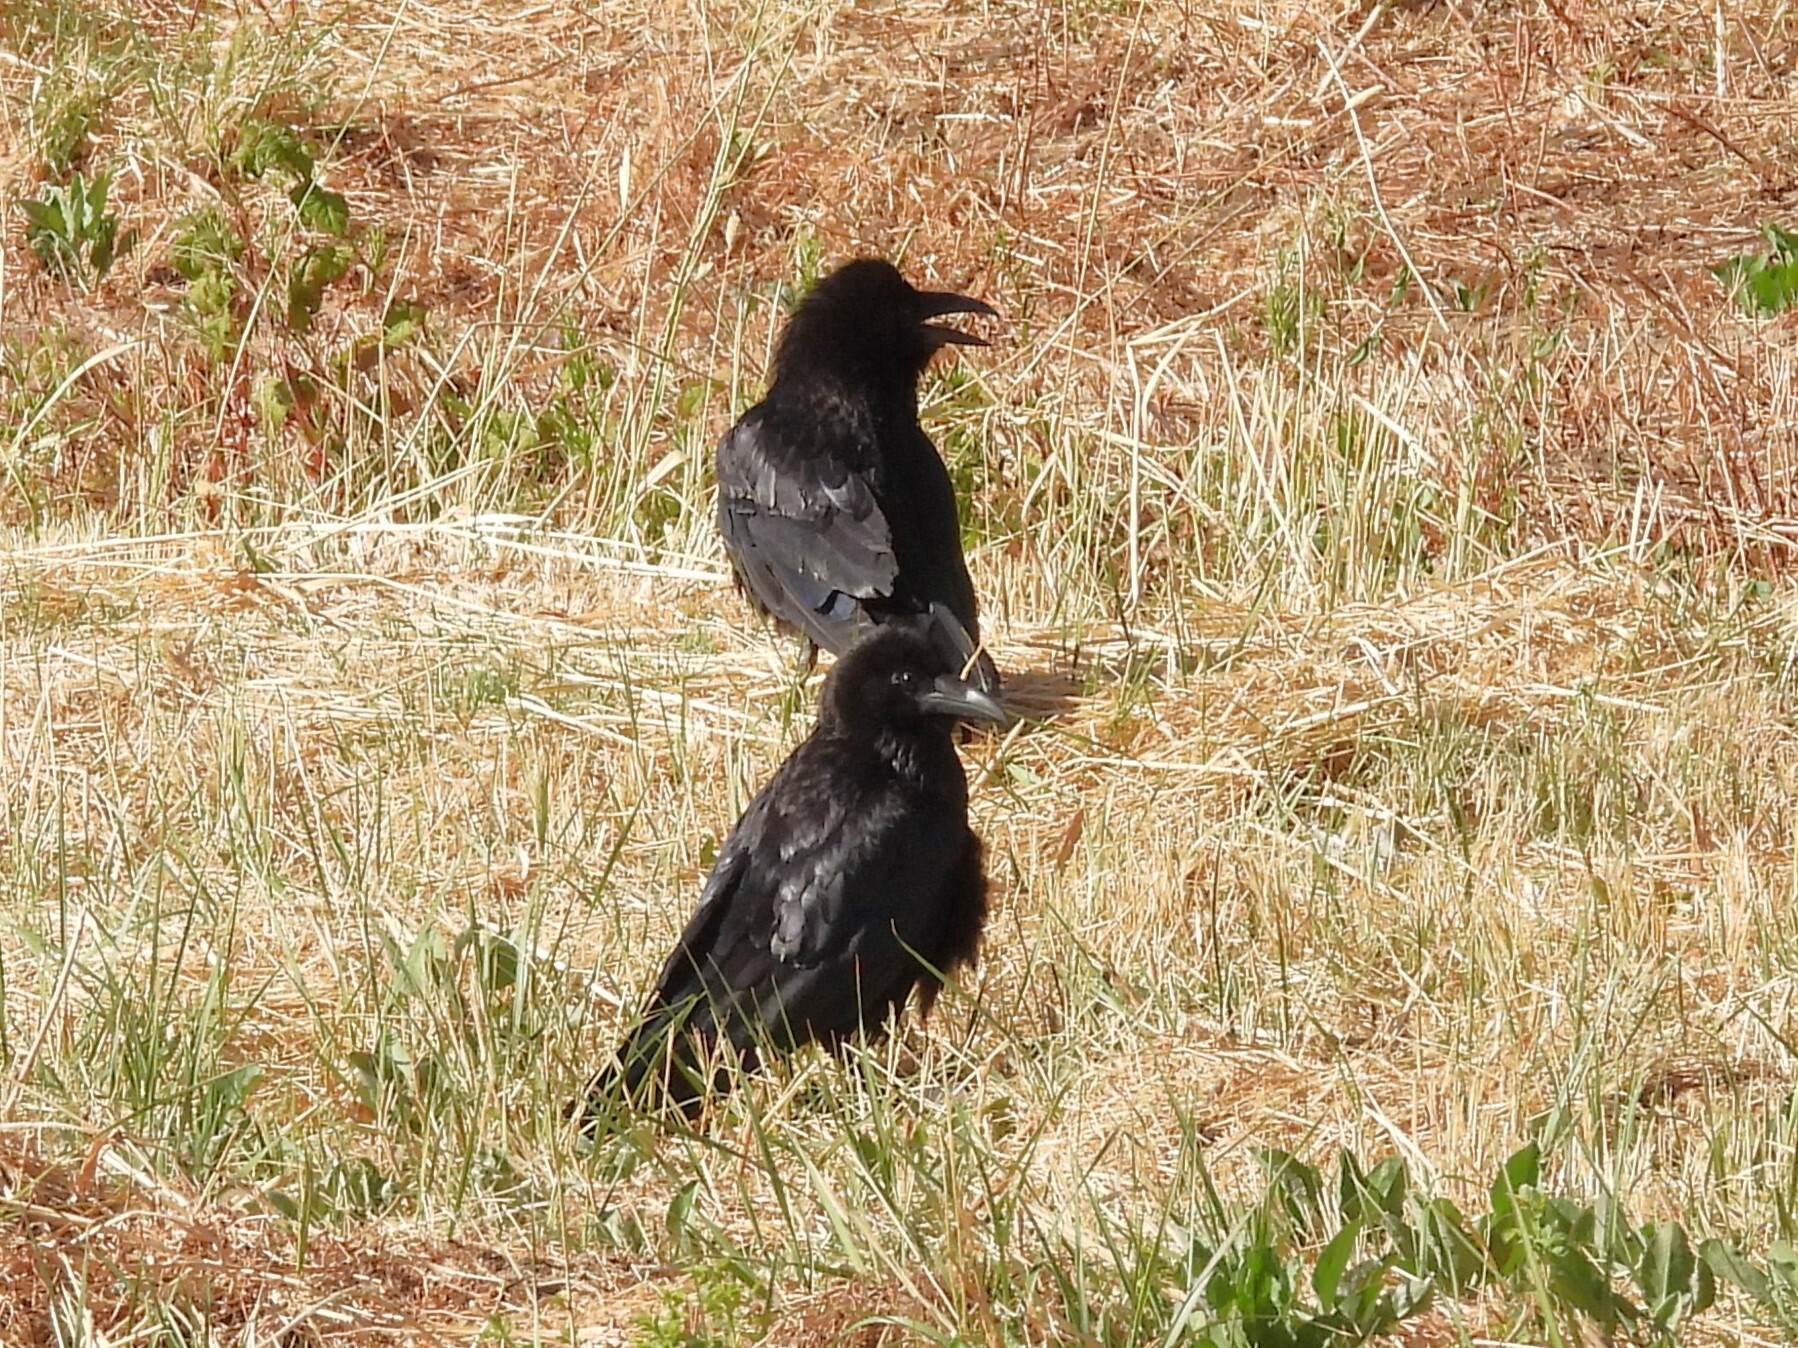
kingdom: Animalia
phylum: Chordata
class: Aves
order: Passeriformes
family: Corvidae
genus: Corvus
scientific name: Corvus corax
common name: Common raven
